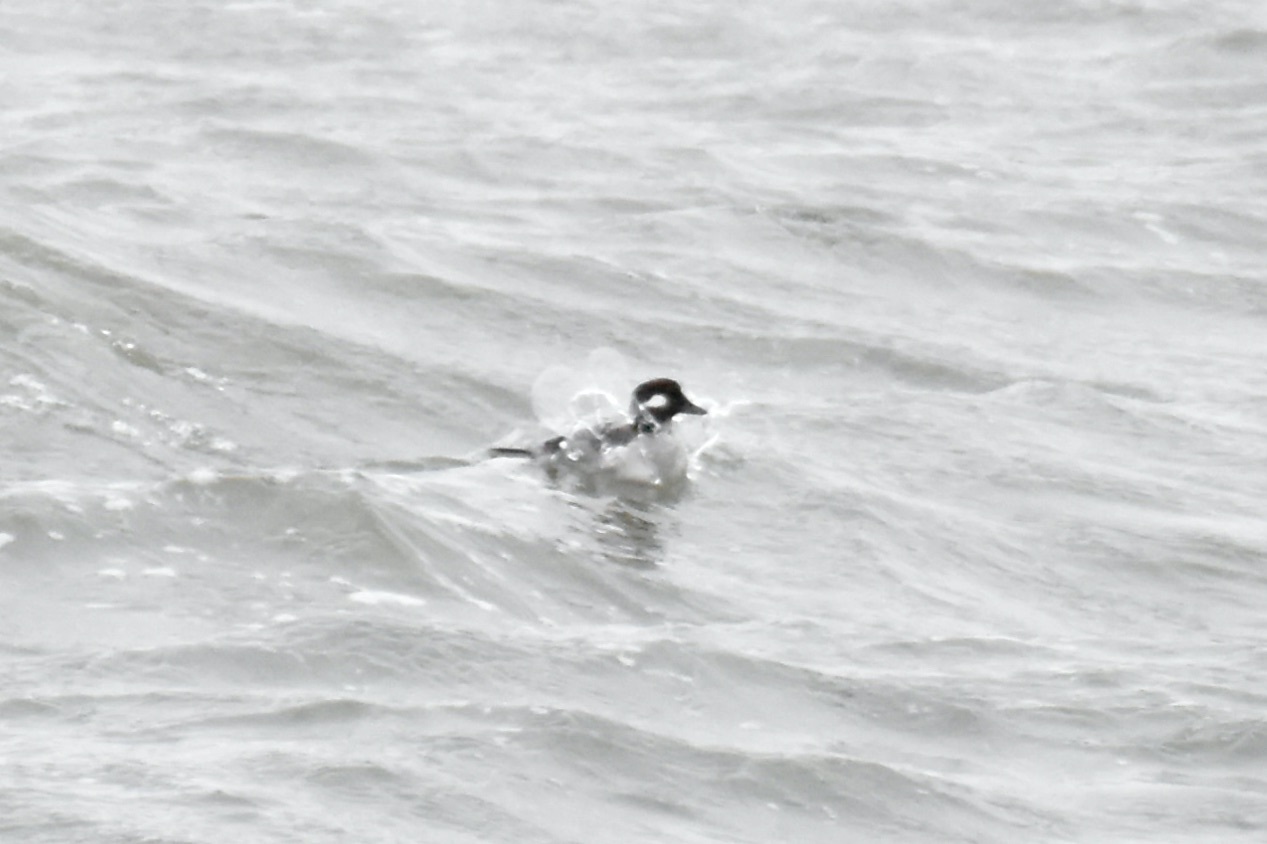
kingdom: Animalia
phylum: Chordata
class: Aves
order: Anseriformes
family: Anatidae
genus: Bucephala
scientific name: Bucephala albeola
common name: Bufflehead
